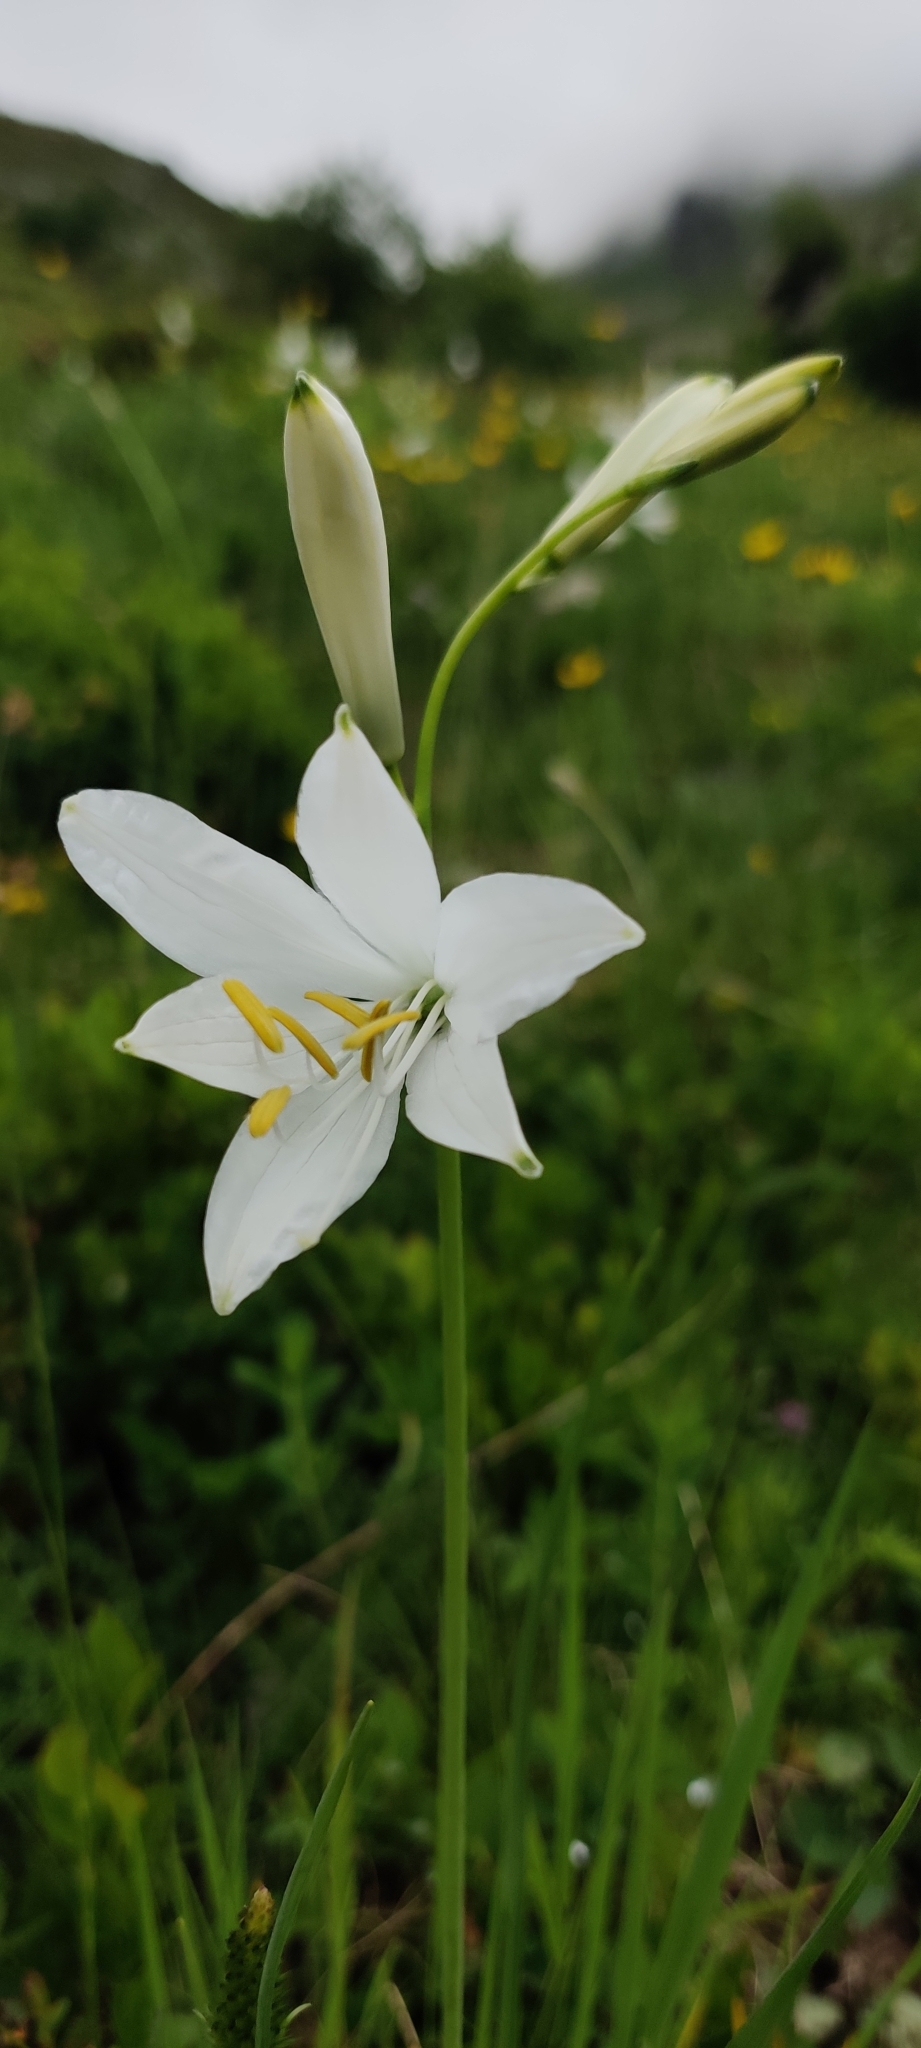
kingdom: Plantae
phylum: Tracheophyta
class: Liliopsida
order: Asparagales
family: Asparagaceae
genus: Paradisea
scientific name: Paradisea liliastrum
